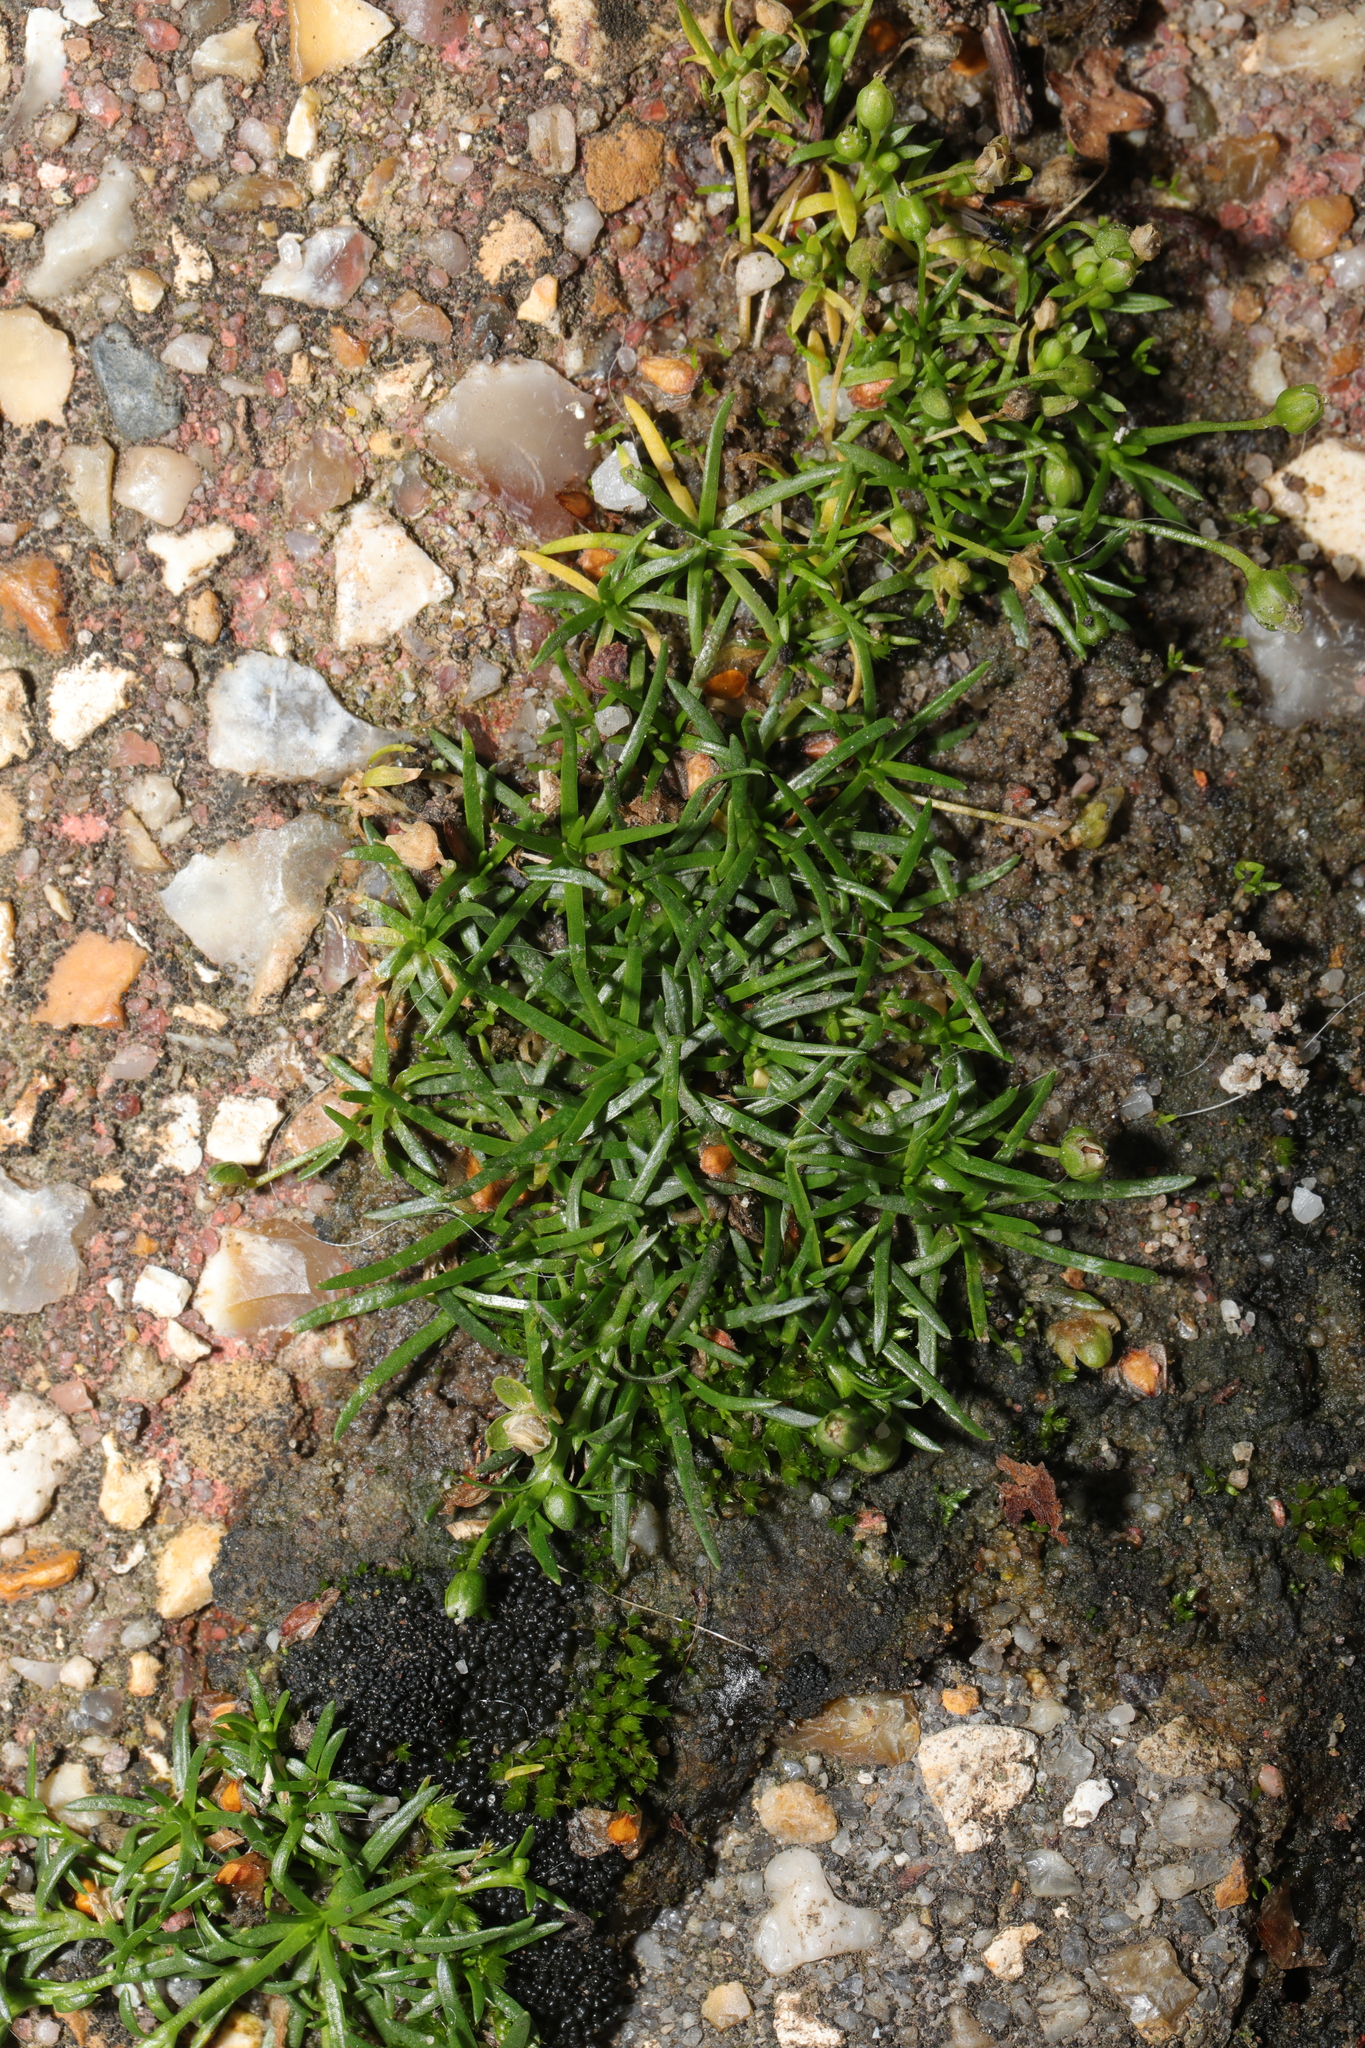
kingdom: Plantae
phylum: Tracheophyta
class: Magnoliopsida
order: Caryophyllales
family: Caryophyllaceae
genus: Sagina
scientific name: Sagina procumbens
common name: Procumbent pearlwort
